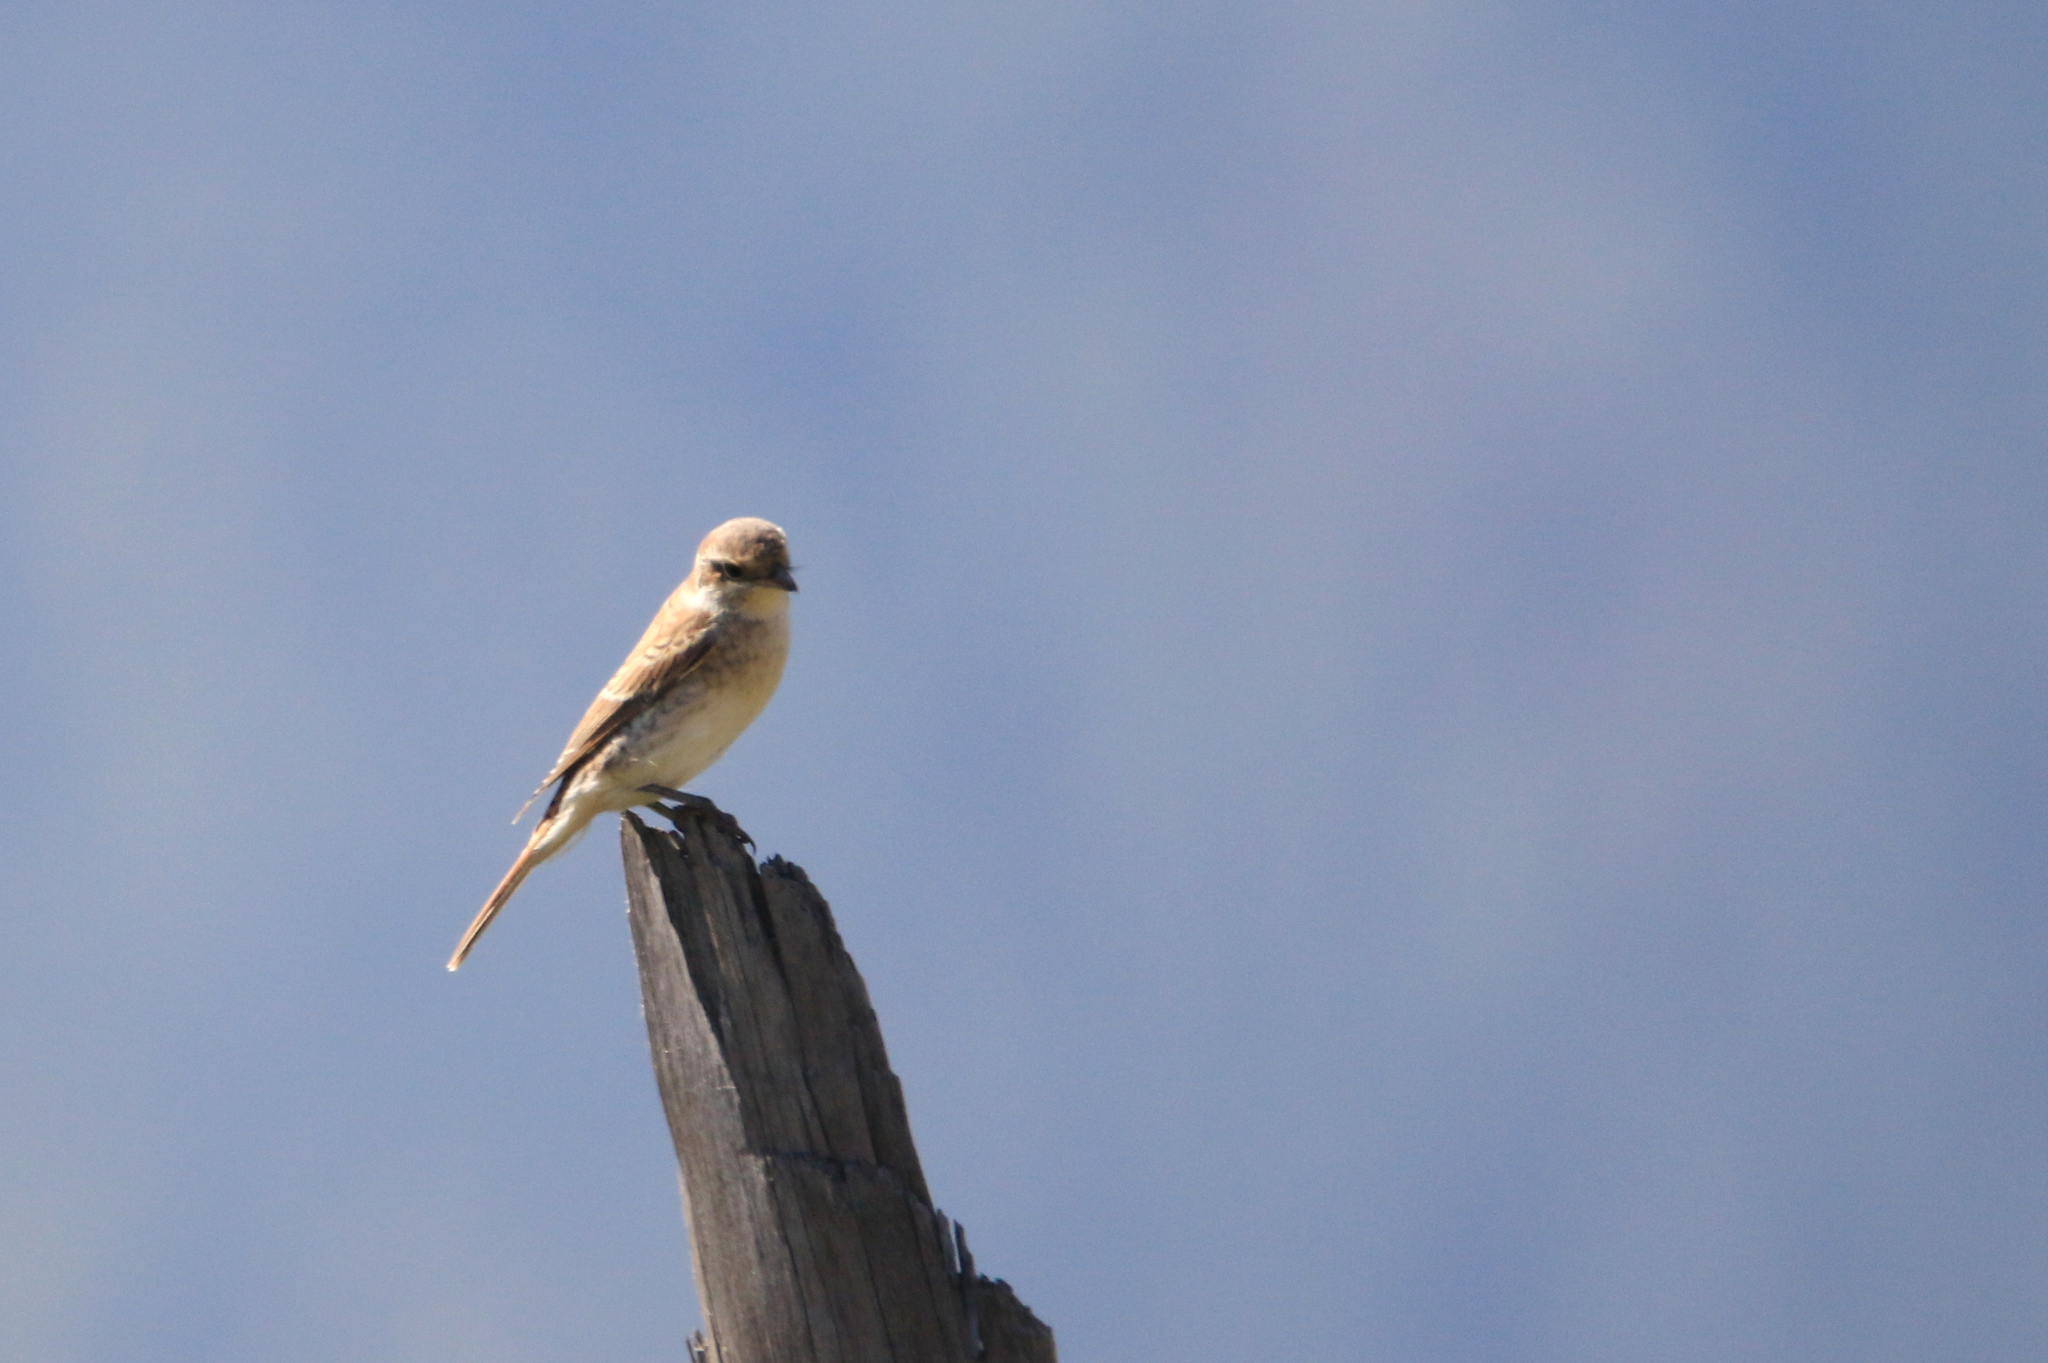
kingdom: Animalia
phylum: Chordata
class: Aves
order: Passeriformes
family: Laniidae
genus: Lanius
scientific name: Lanius cristatus
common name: Brown shrike
